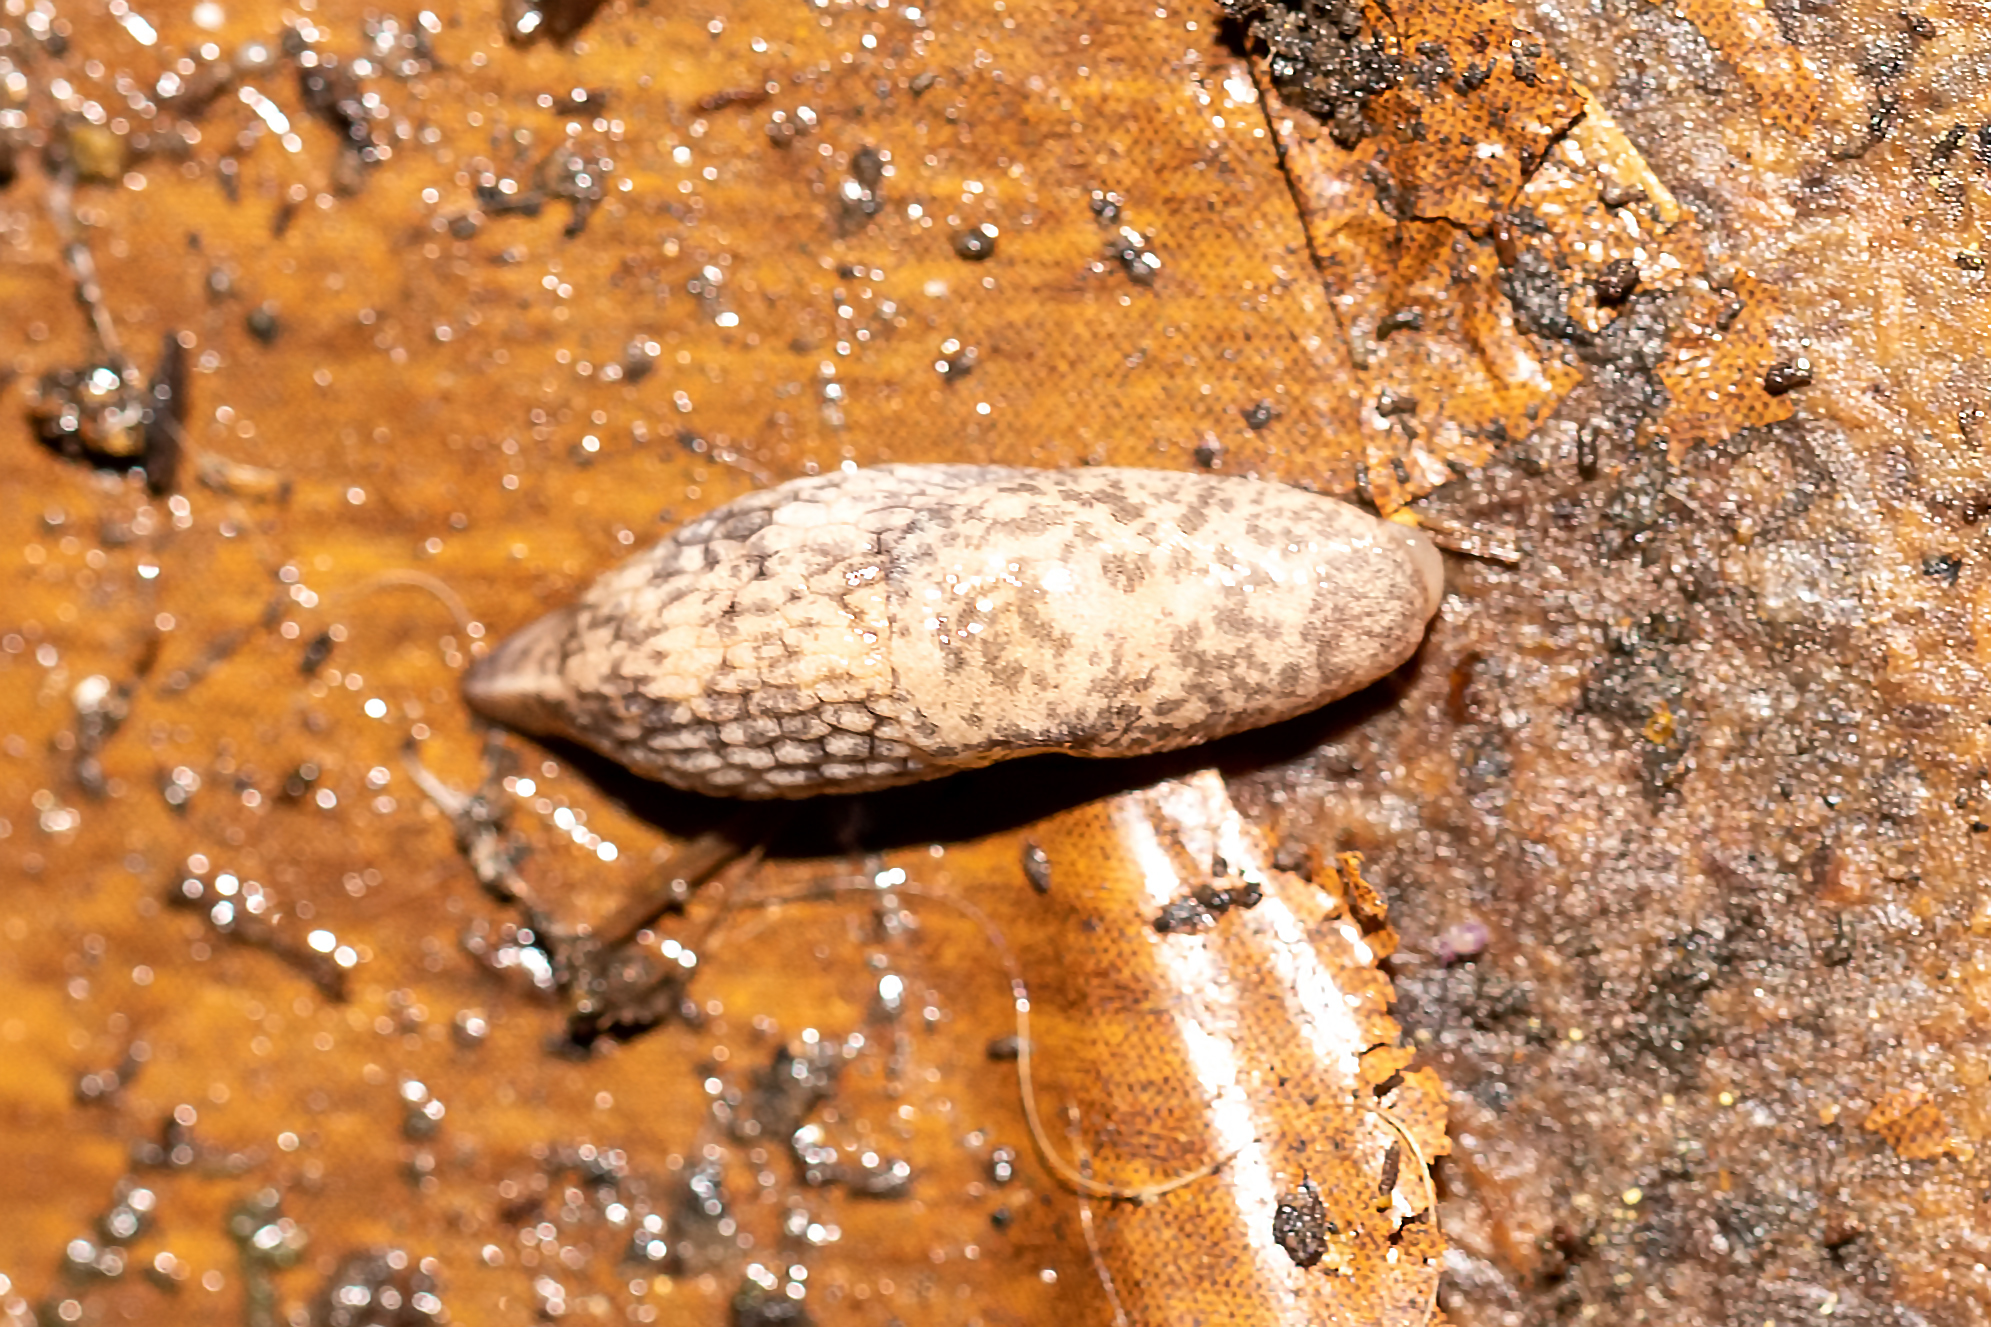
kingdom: Animalia
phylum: Mollusca
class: Gastropoda
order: Stylommatophora
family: Agriolimacidae
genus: Deroceras
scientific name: Deroceras reticulatum
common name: Gray field slug
